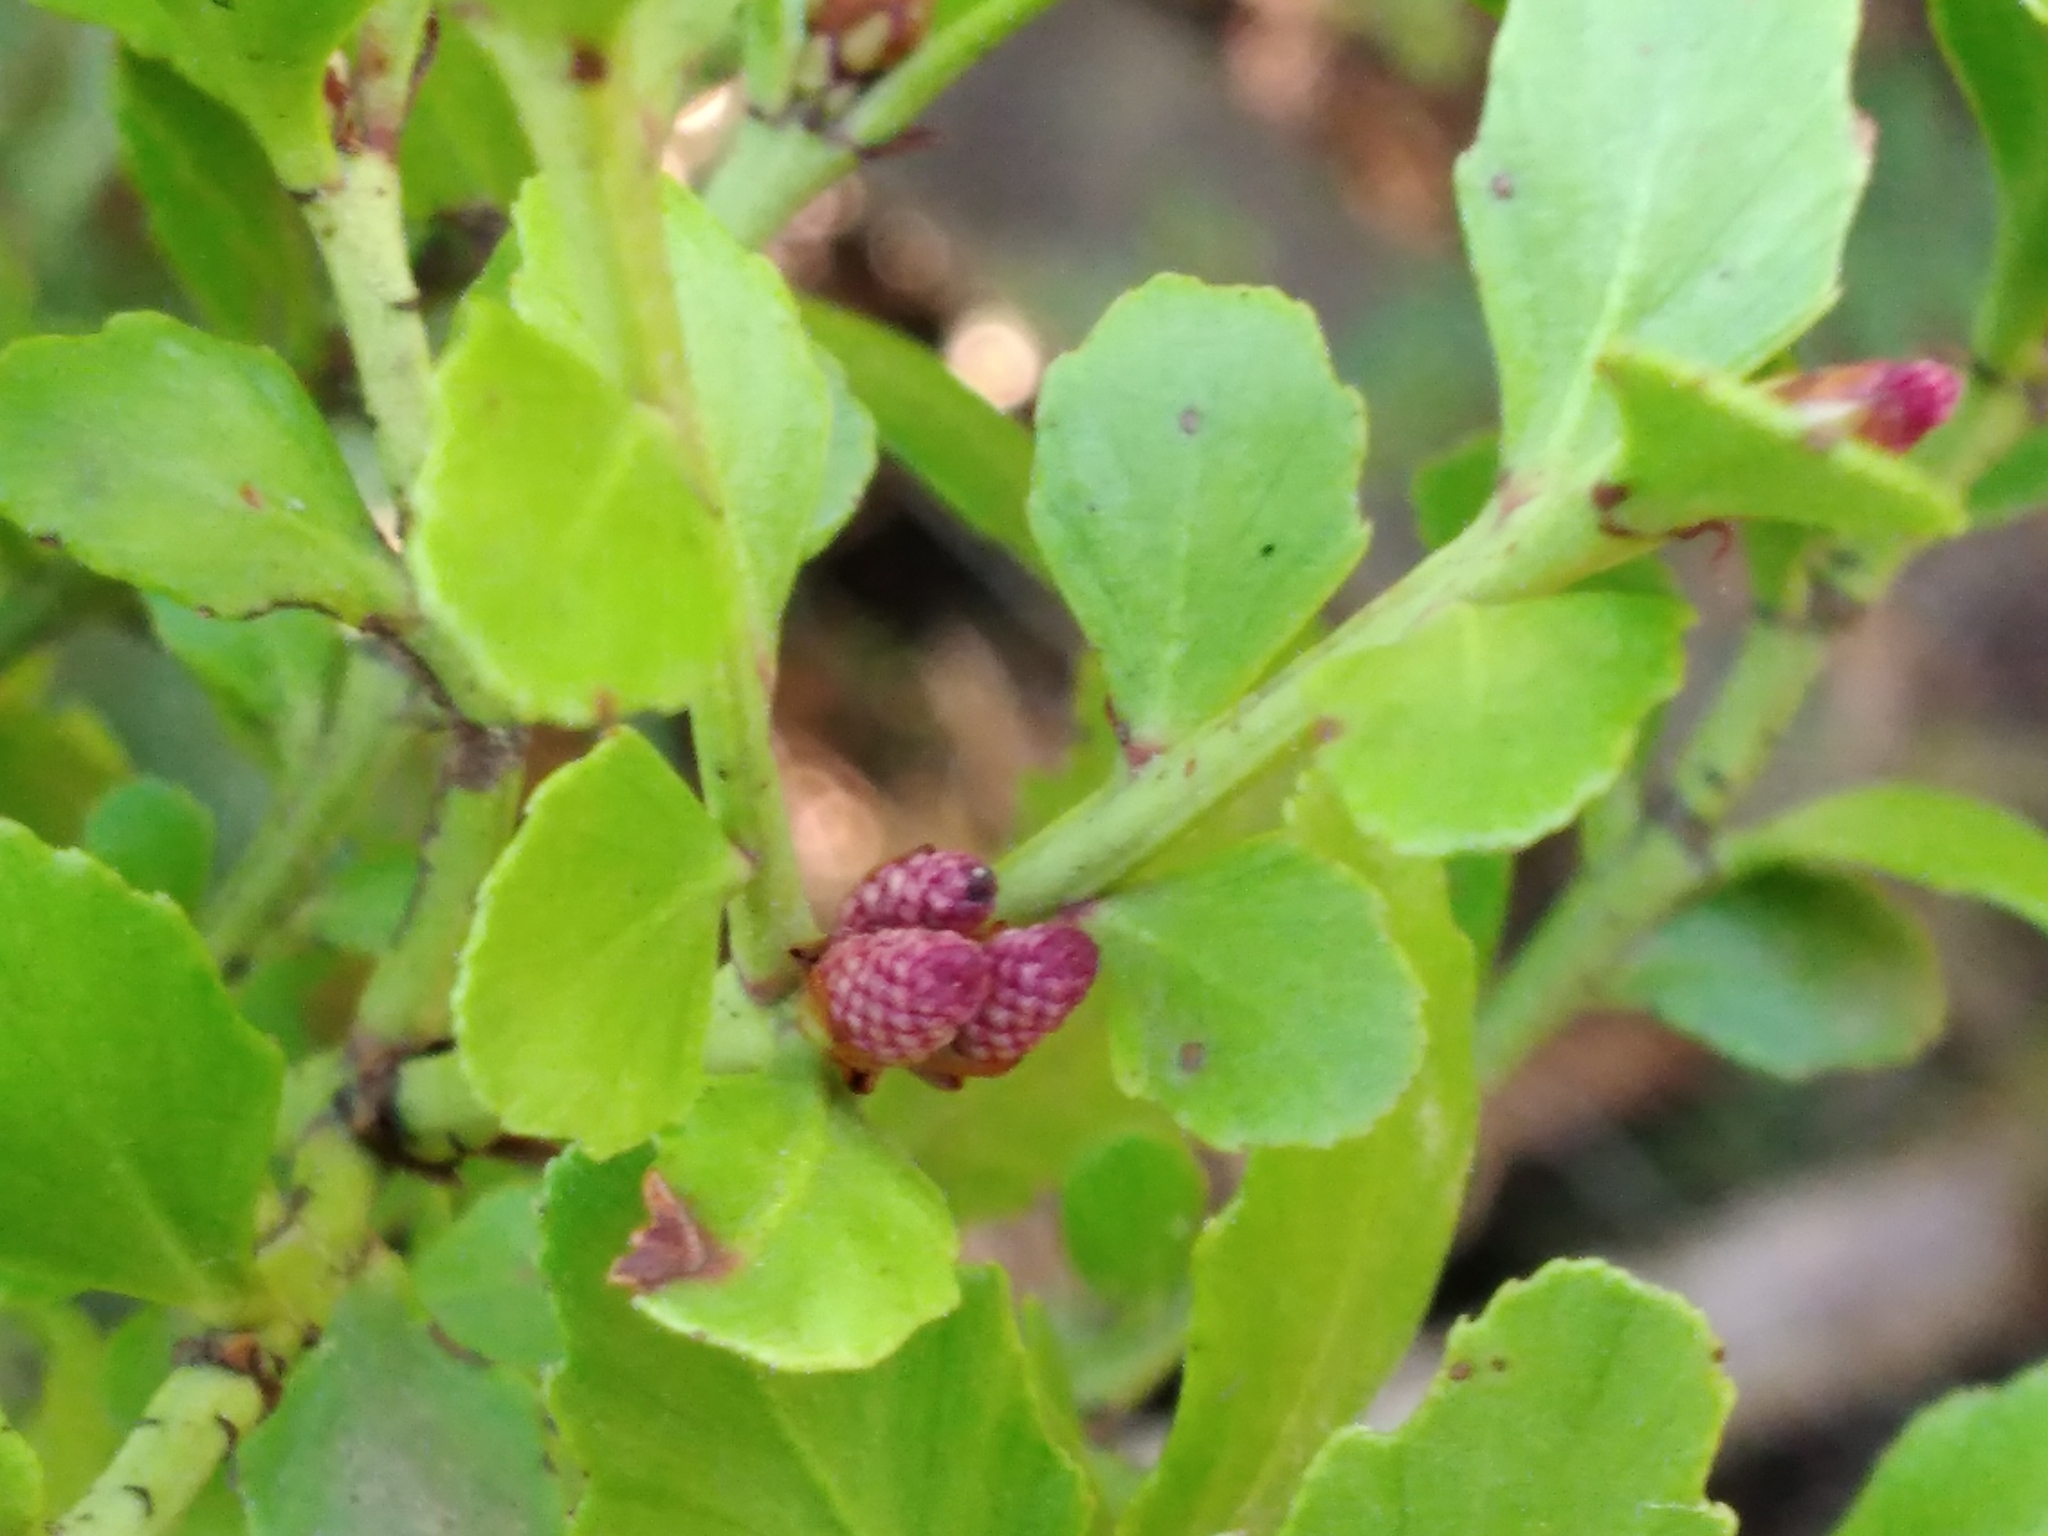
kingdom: Plantae
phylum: Tracheophyta
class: Pinopsida
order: Pinales
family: Phyllocladaceae
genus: Phyllocladus
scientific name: Phyllocladus trichomanoides
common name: Celery pine
